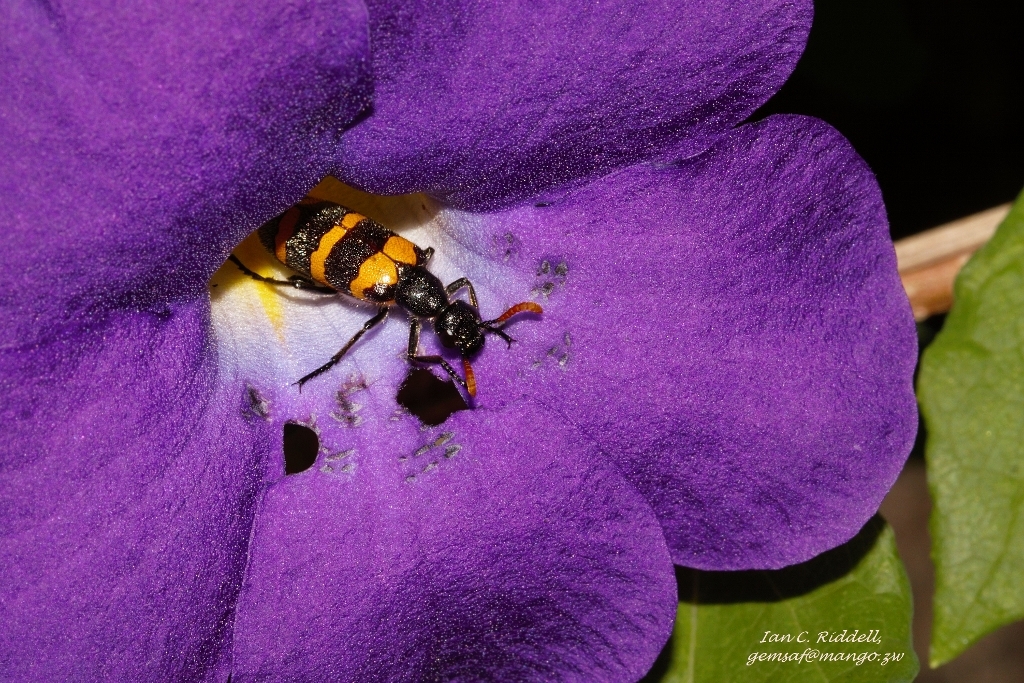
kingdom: Animalia
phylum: Arthropoda
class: Insecta
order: Coleoptera
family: Meloidae
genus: Hycleus
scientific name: Hycleus amplectens
